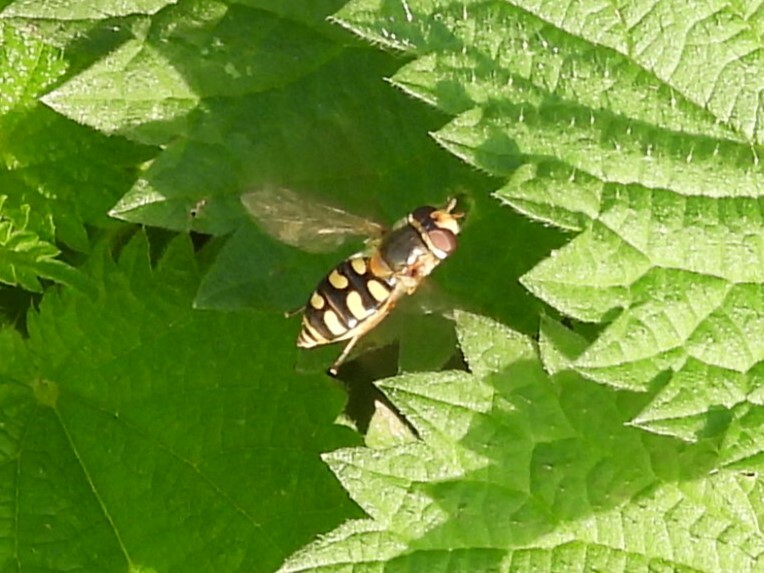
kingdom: Animalia
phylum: Arthropoda
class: Insecta
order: Diptera
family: Syrphidae
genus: Eupeodes
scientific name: Eupeodes luniger
